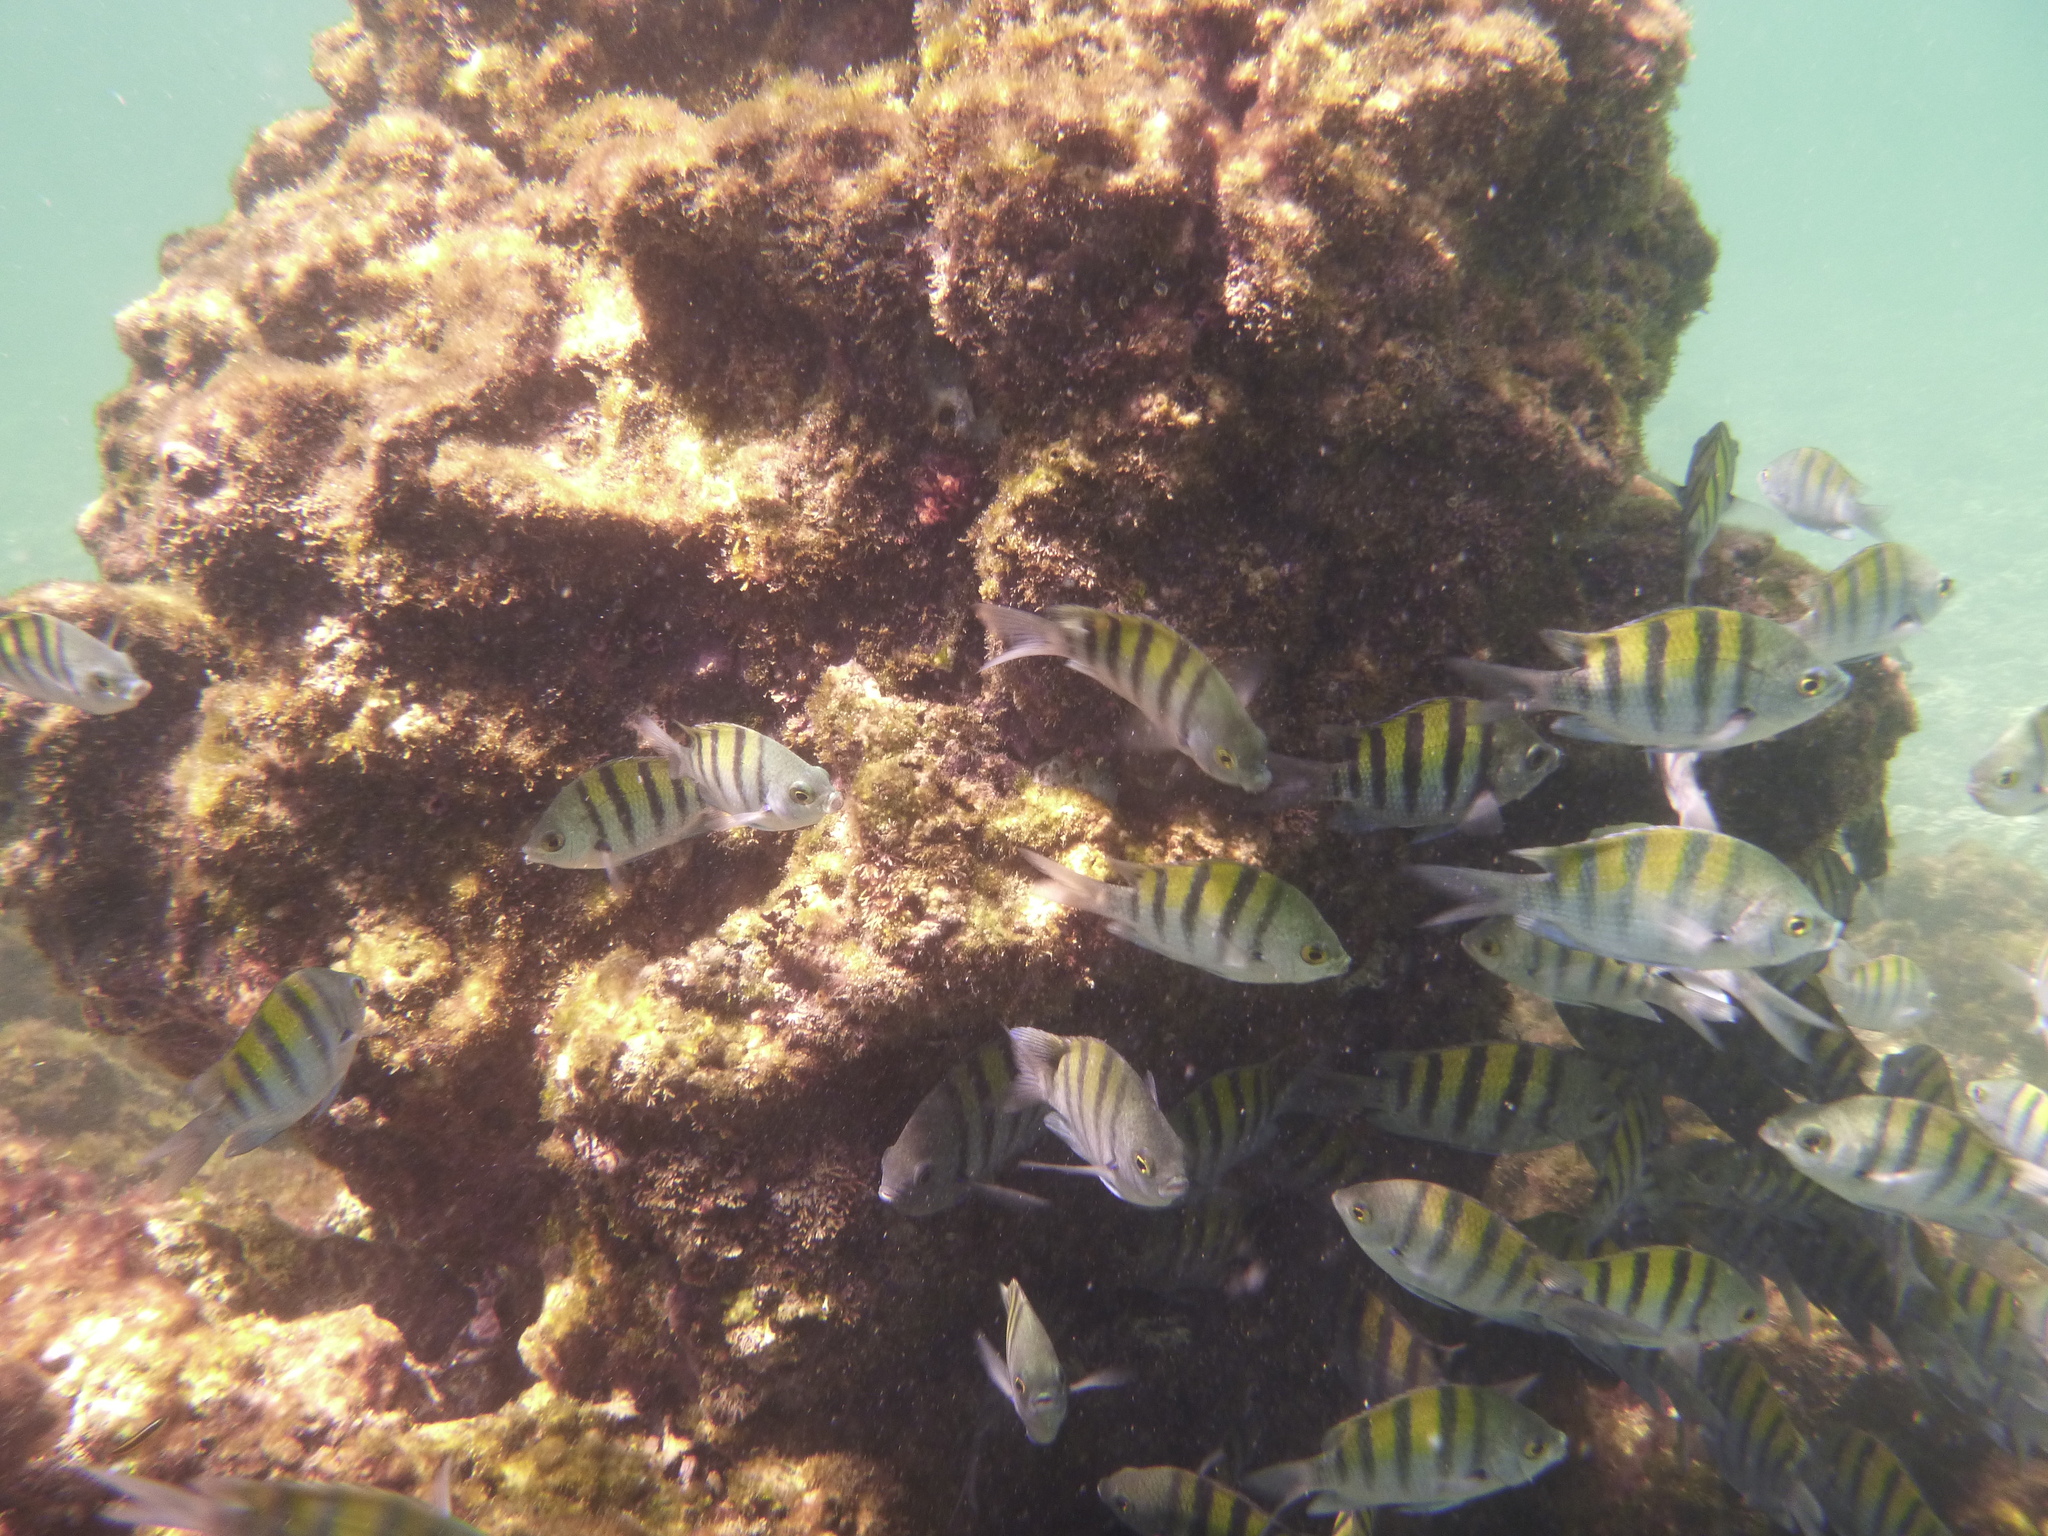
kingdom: Animalia
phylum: Chordata
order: Perciformes
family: Pomacentridae
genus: Abudefduf
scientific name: Abudefduf troschelii
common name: Panamic sergeant major
